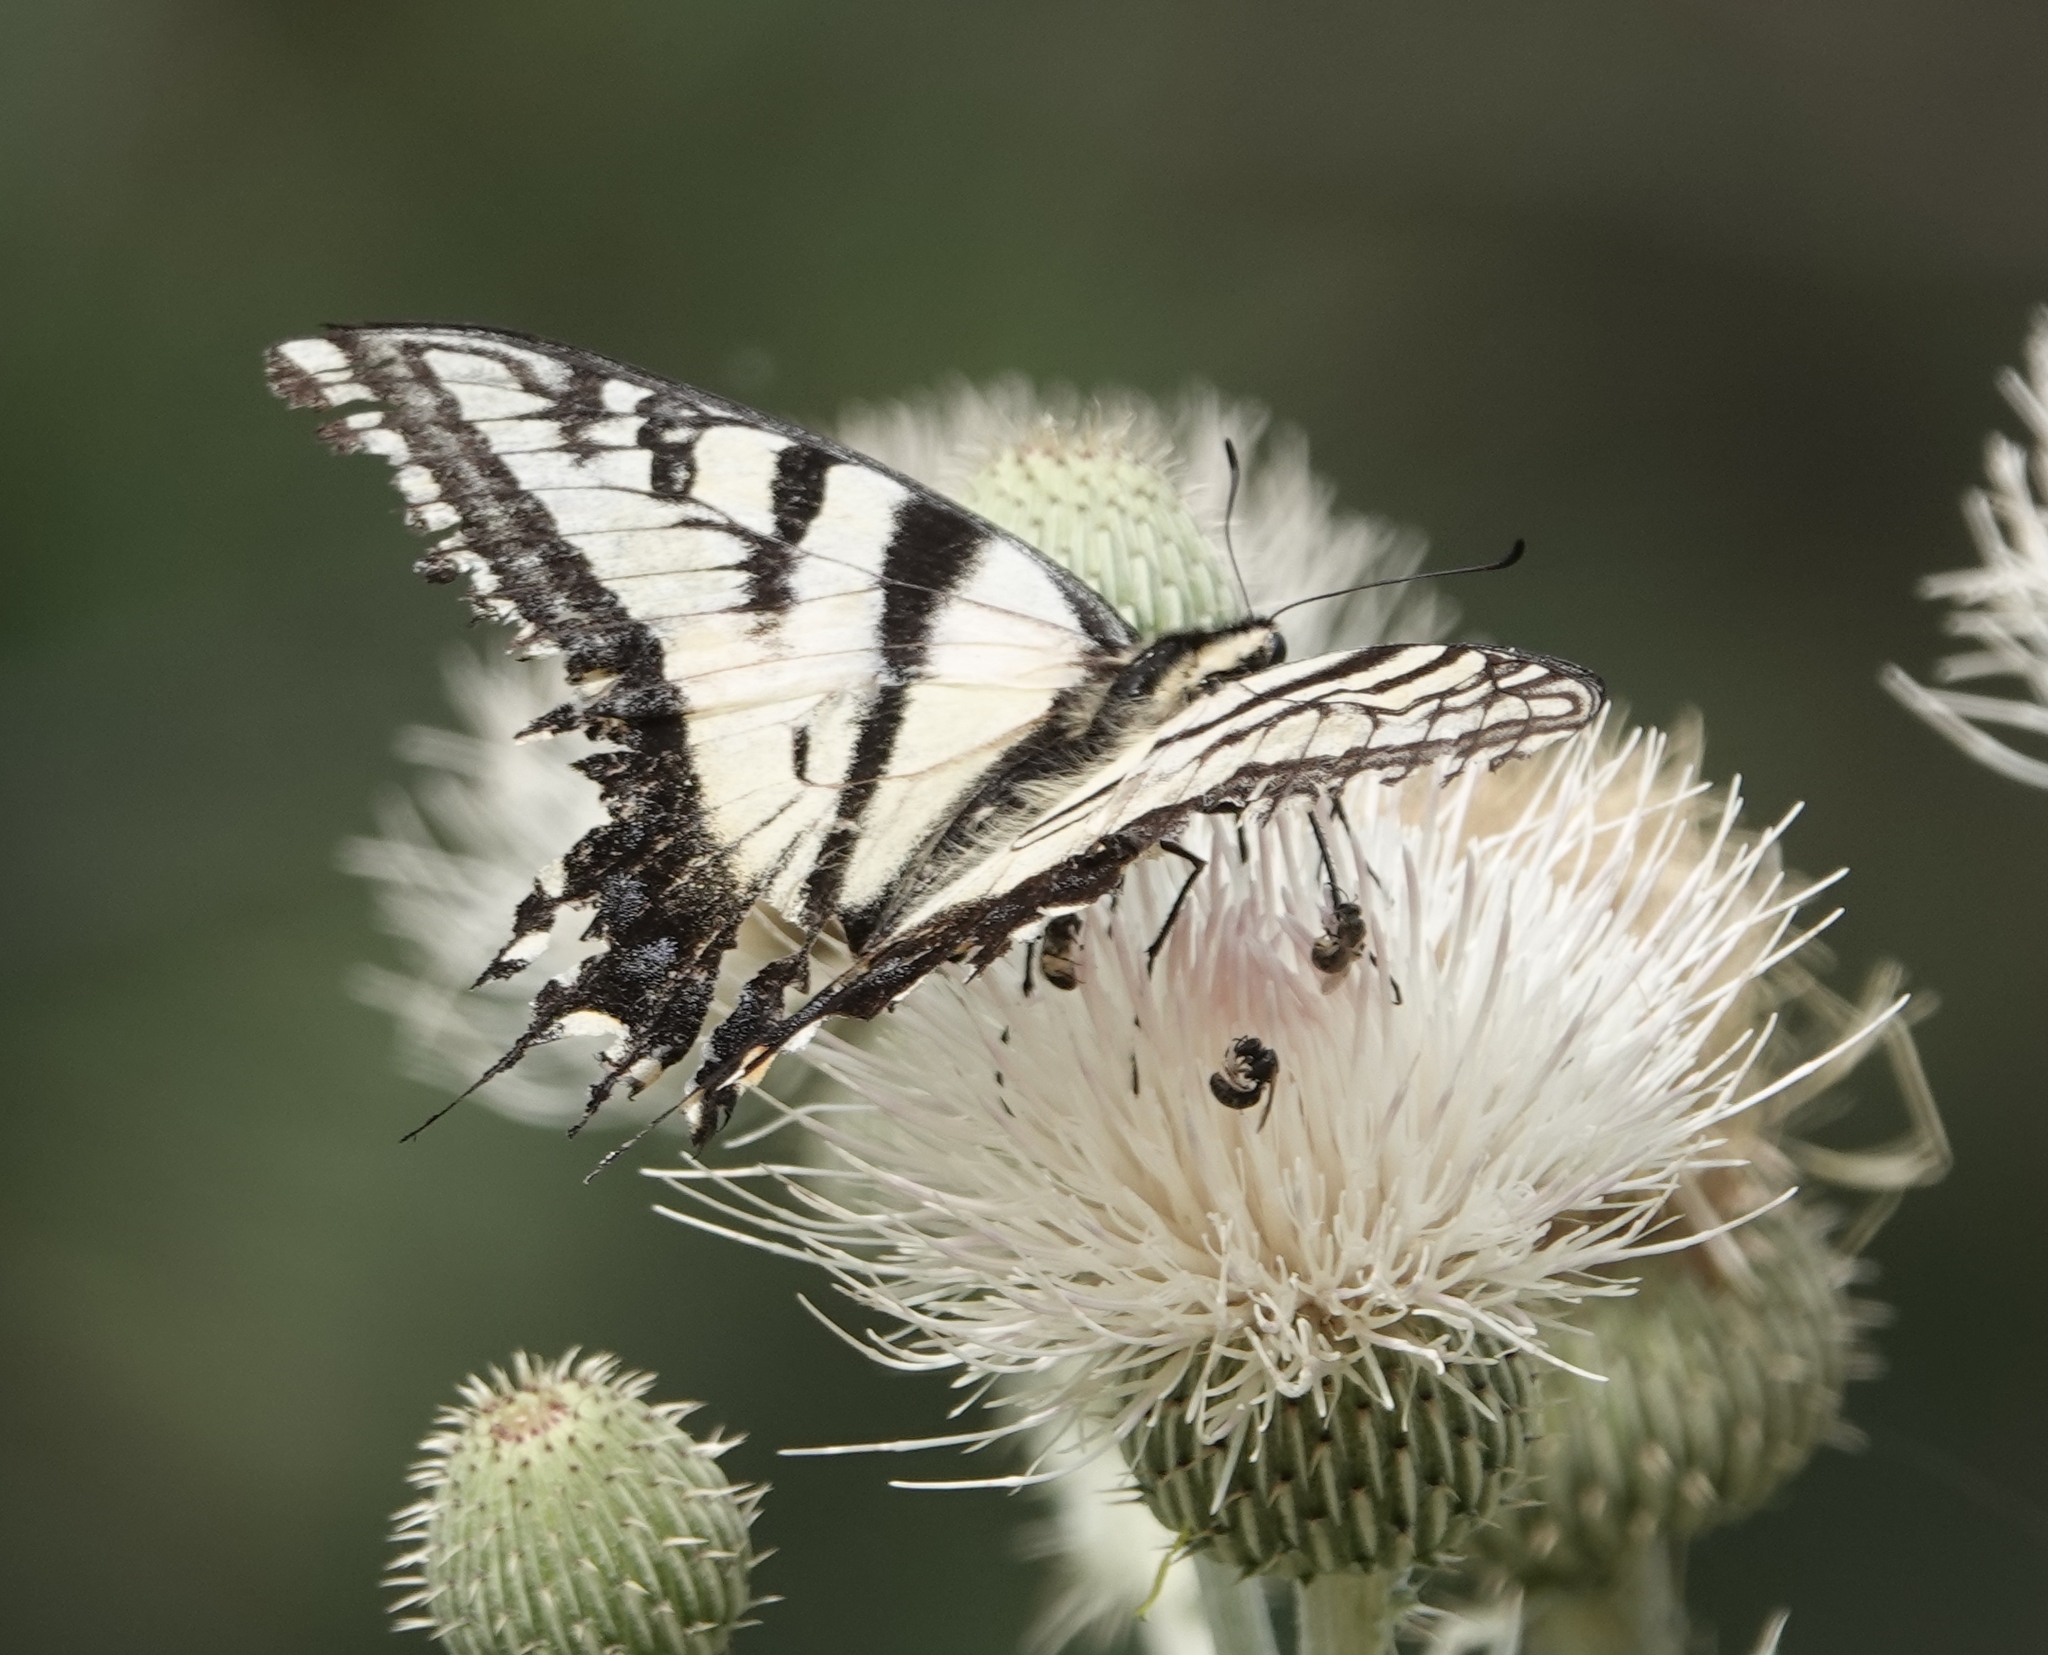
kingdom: Animalia
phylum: Arthropoda
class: Insecta
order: Lepidoptera
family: Papilionidae
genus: Papilio
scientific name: Papilio multicaudata
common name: Two-tailed tiger swallowtail
